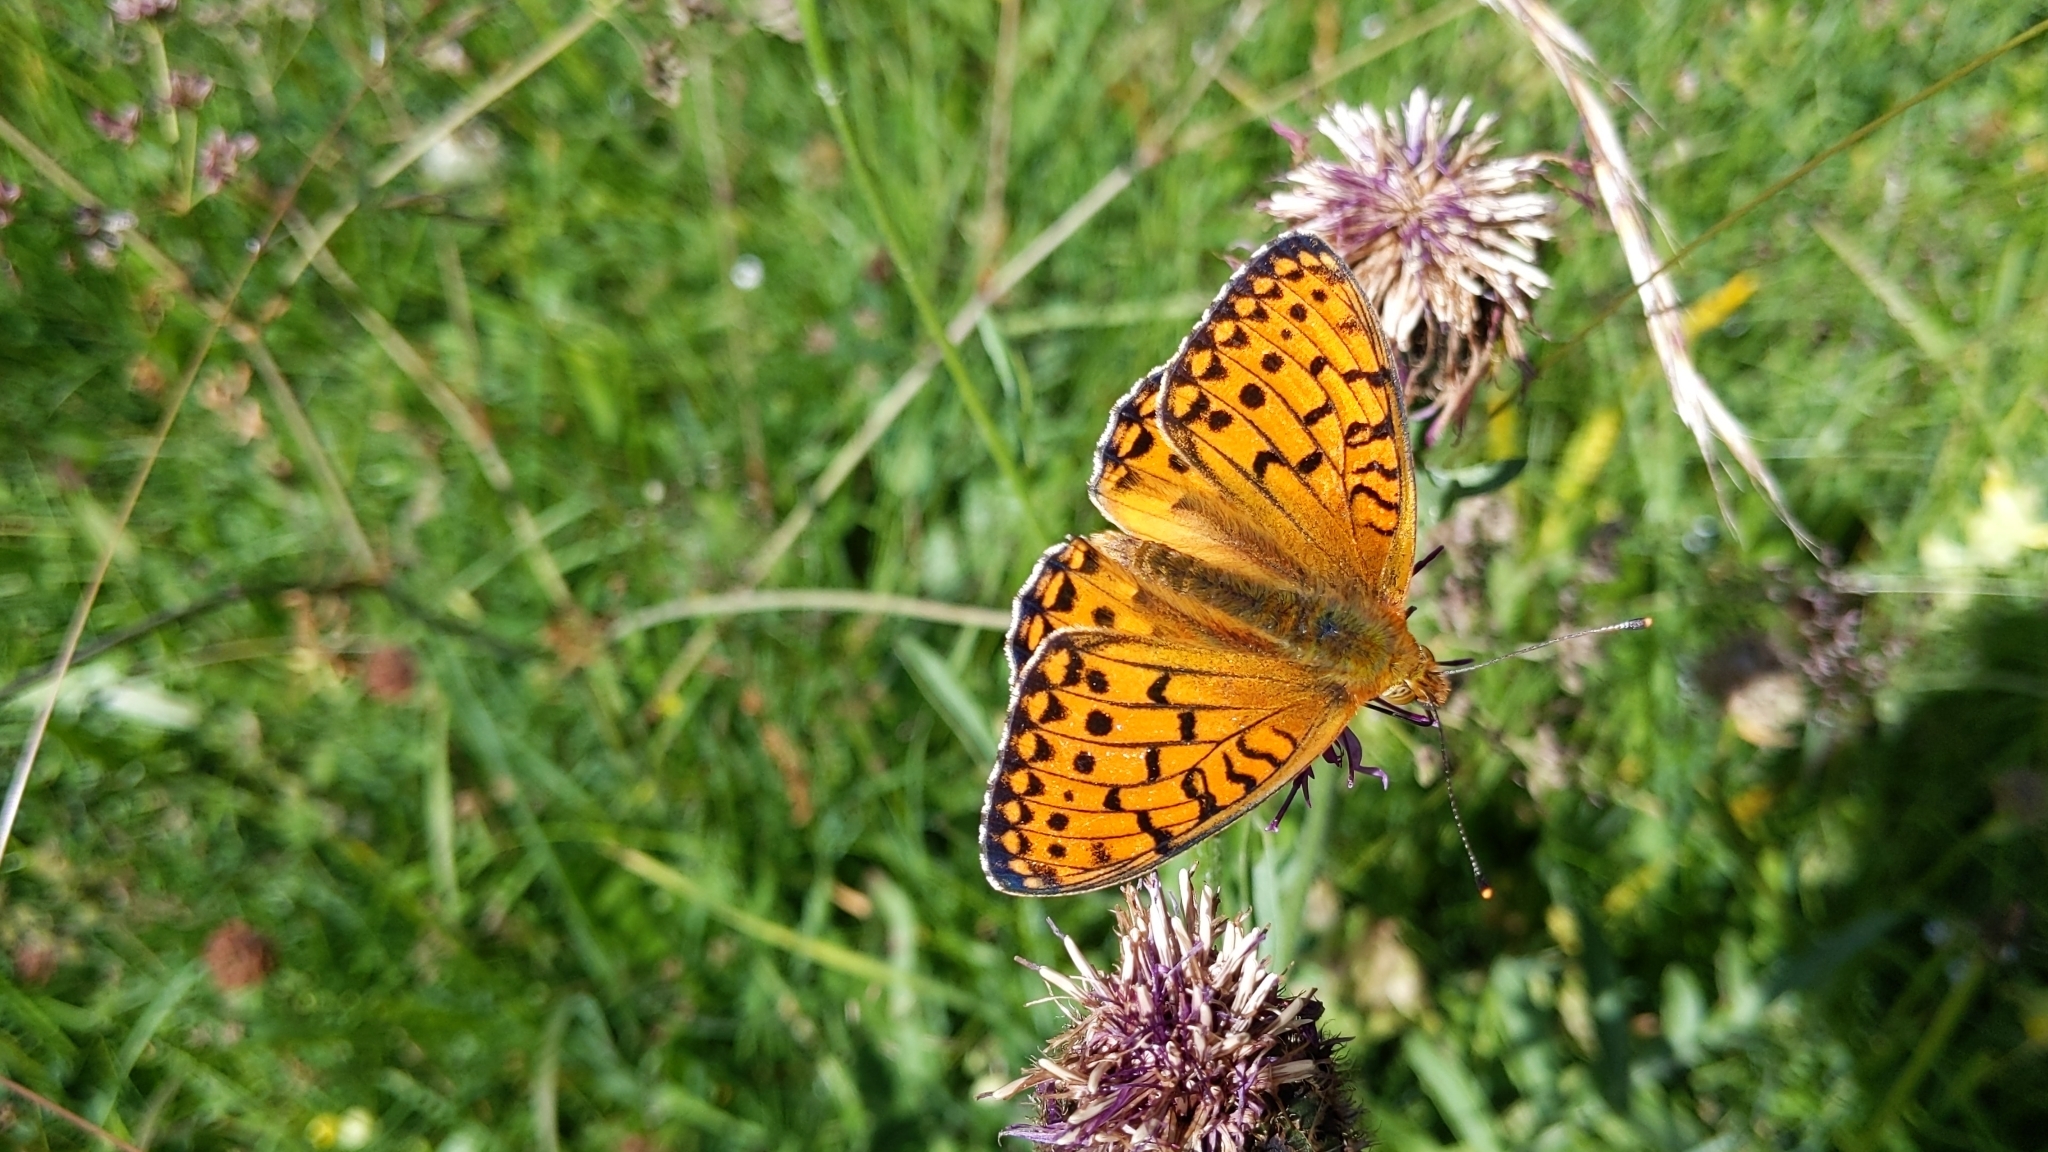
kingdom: Animalia
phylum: Arthropoda
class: Insecta
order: Lepidoptera
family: Nymphalidae
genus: Speyeria
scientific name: Speyeria aglaja
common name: Dark green fritillary
